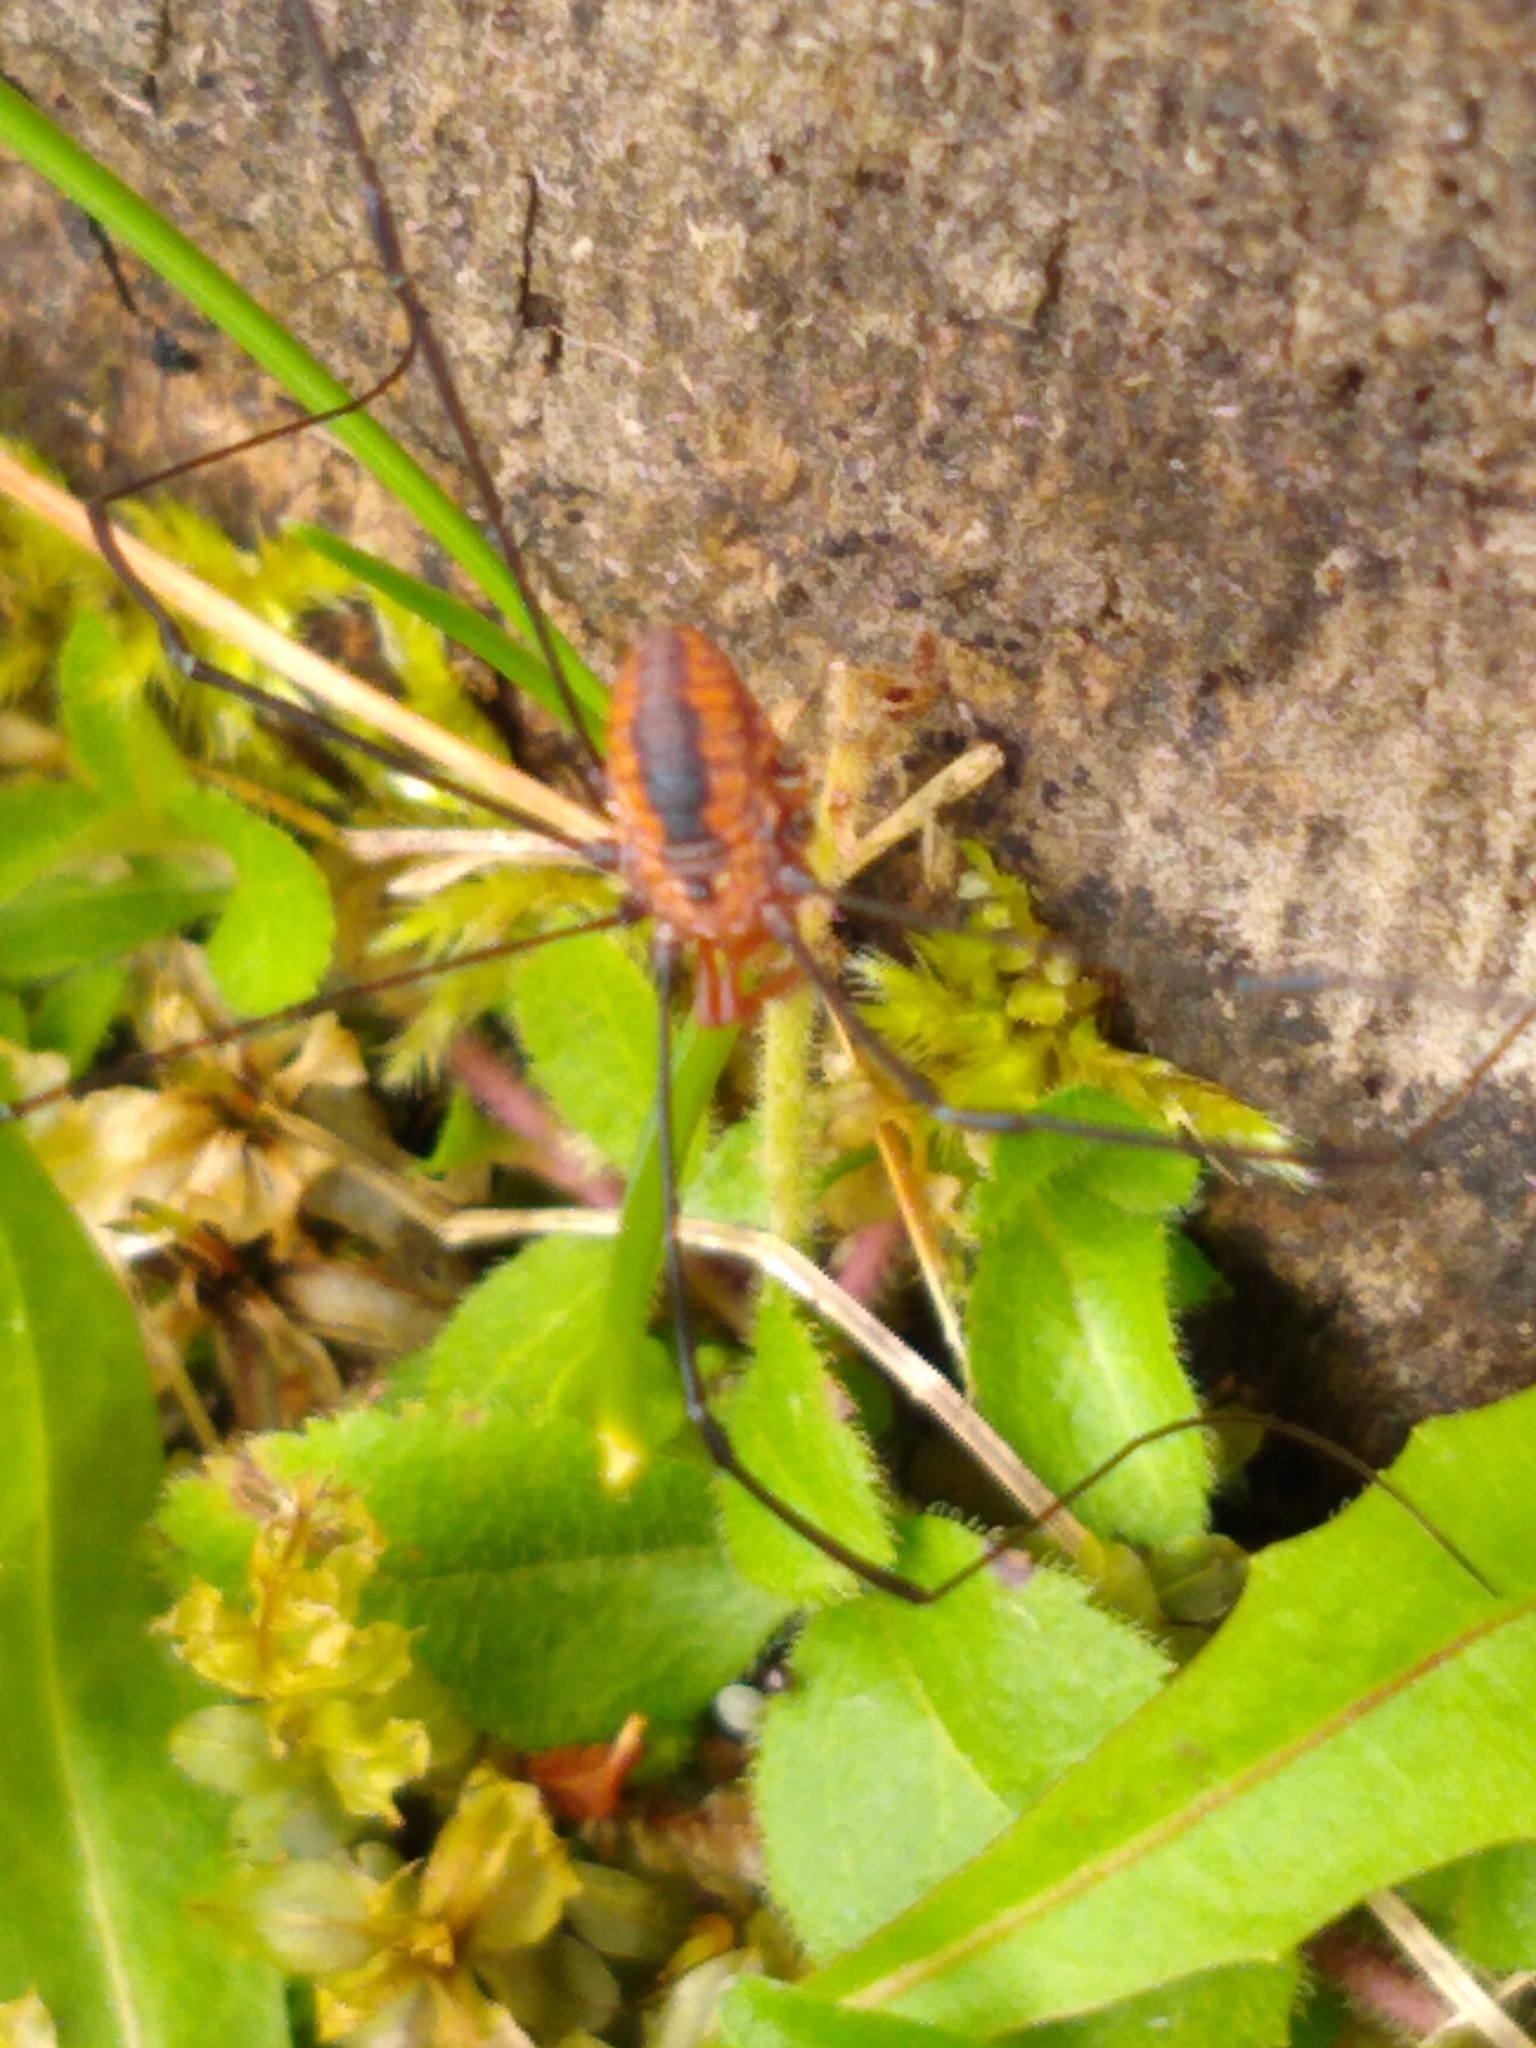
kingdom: Animalia
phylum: Arthropoda
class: Arachnida
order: Opiliones
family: Sclerosomatidae
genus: Leiobunum
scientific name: Leiobunum vittatum
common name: Eastern harvestman
